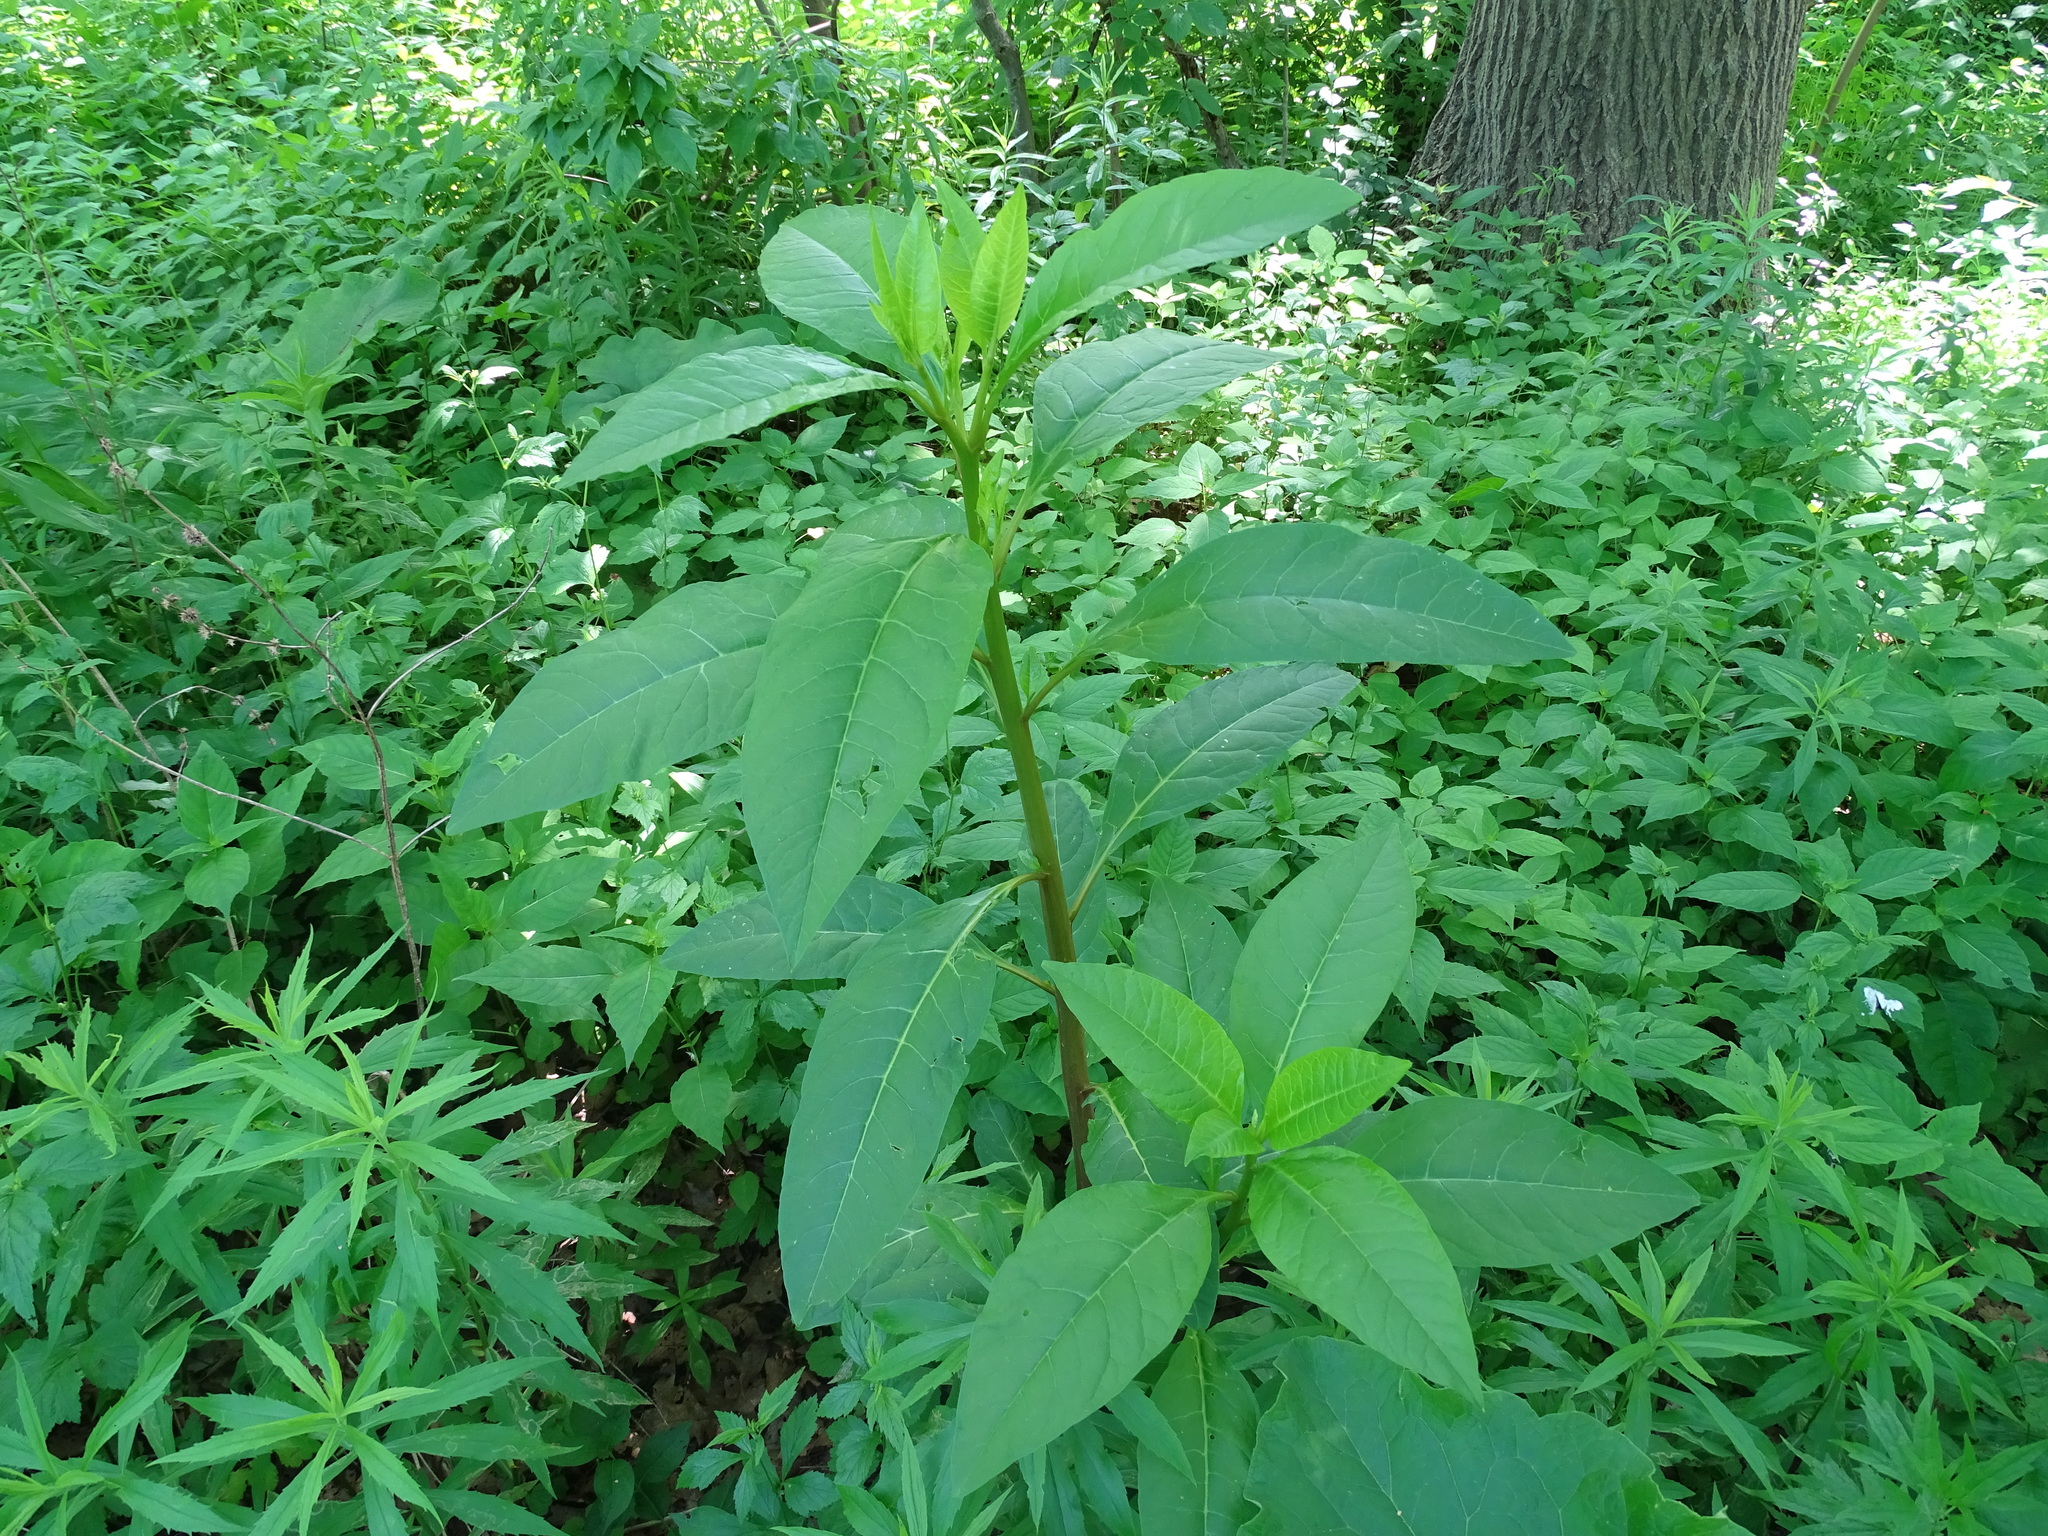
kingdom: Plantae
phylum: Tracheophyta
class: Magnoliopsida
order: Caryophyllales
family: Phytolaccaceae
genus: Phytolacca
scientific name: Phytolacca americana
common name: American pokeweed
